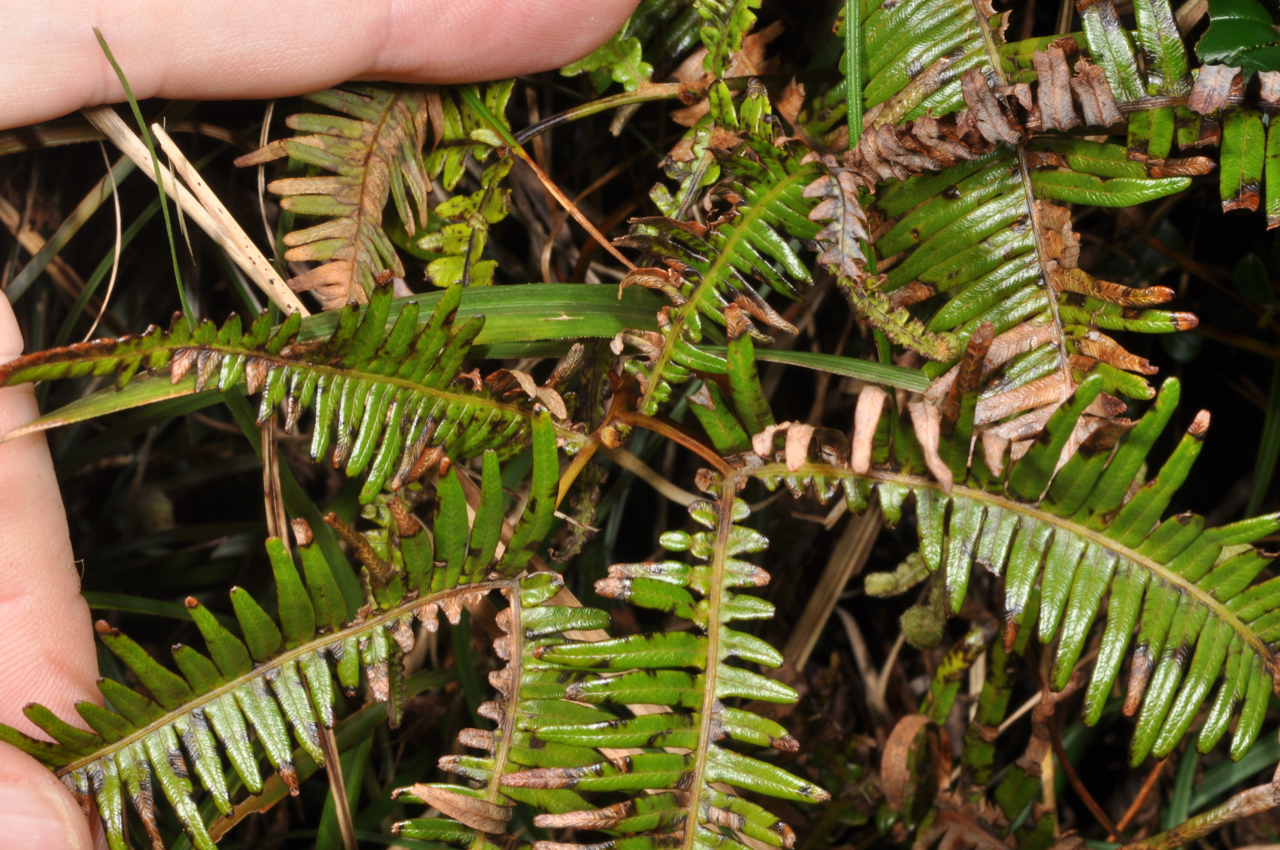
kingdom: Plantae
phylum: Tracheophyta
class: Polypodiopsida
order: Gleicheniales
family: Gleicheniaceae
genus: Dicranopteris
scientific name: Dicranopteris linearis
